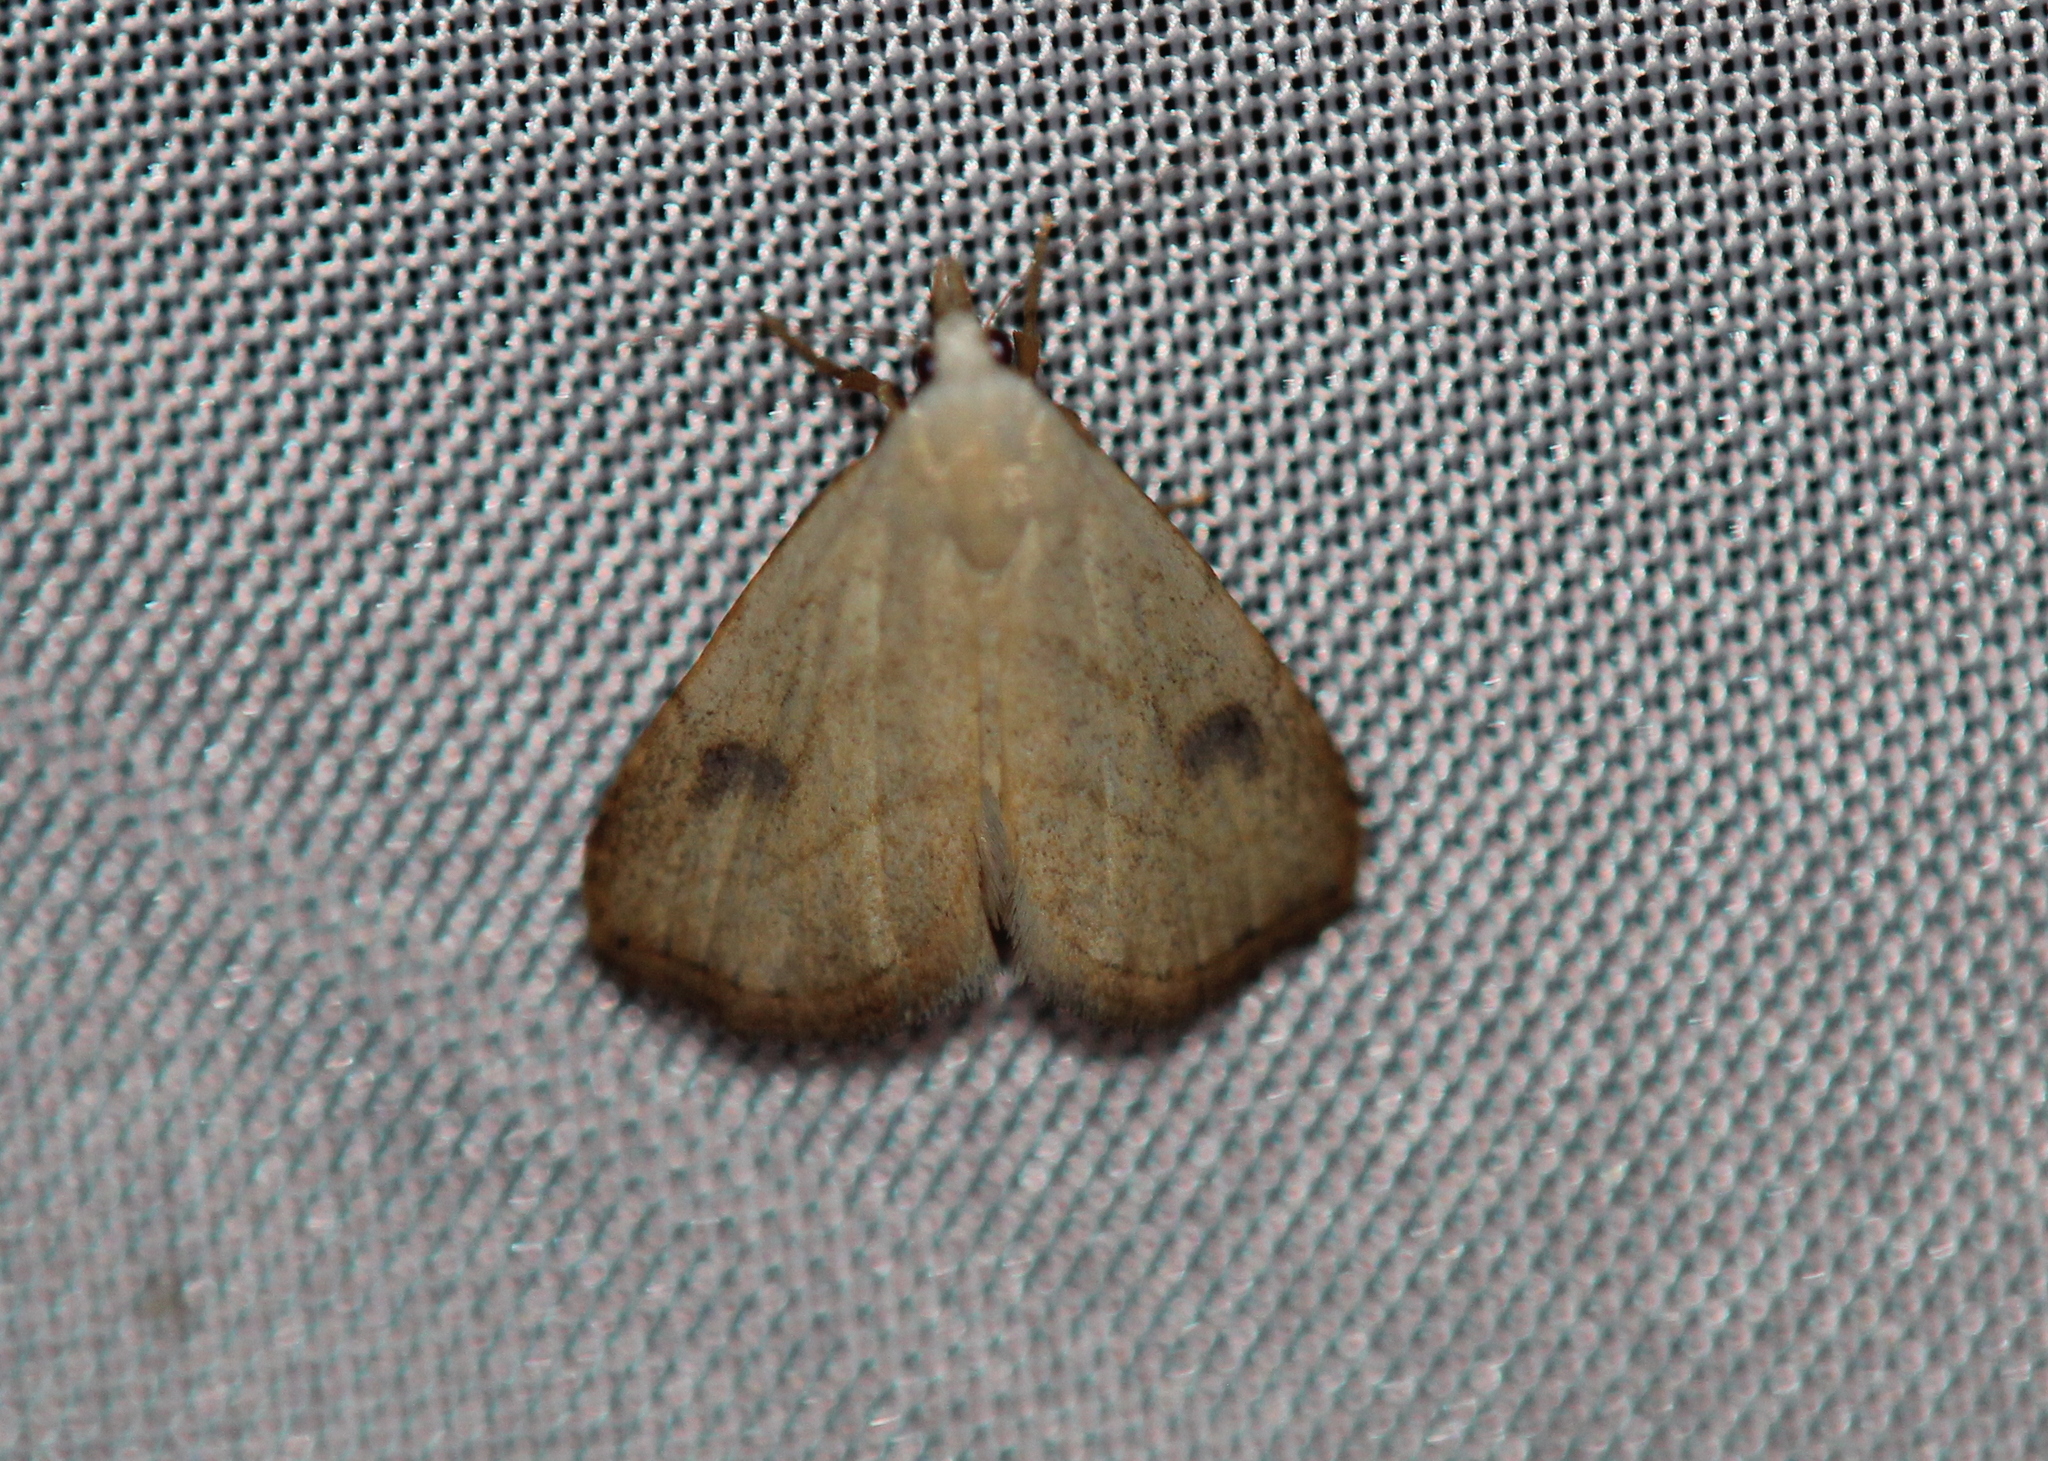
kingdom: Animalia
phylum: Arthropoda
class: Insecta
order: Lepidoptera
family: Erebidae
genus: Rivula
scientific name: Rivula propinqualis
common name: Spotted grass moth
